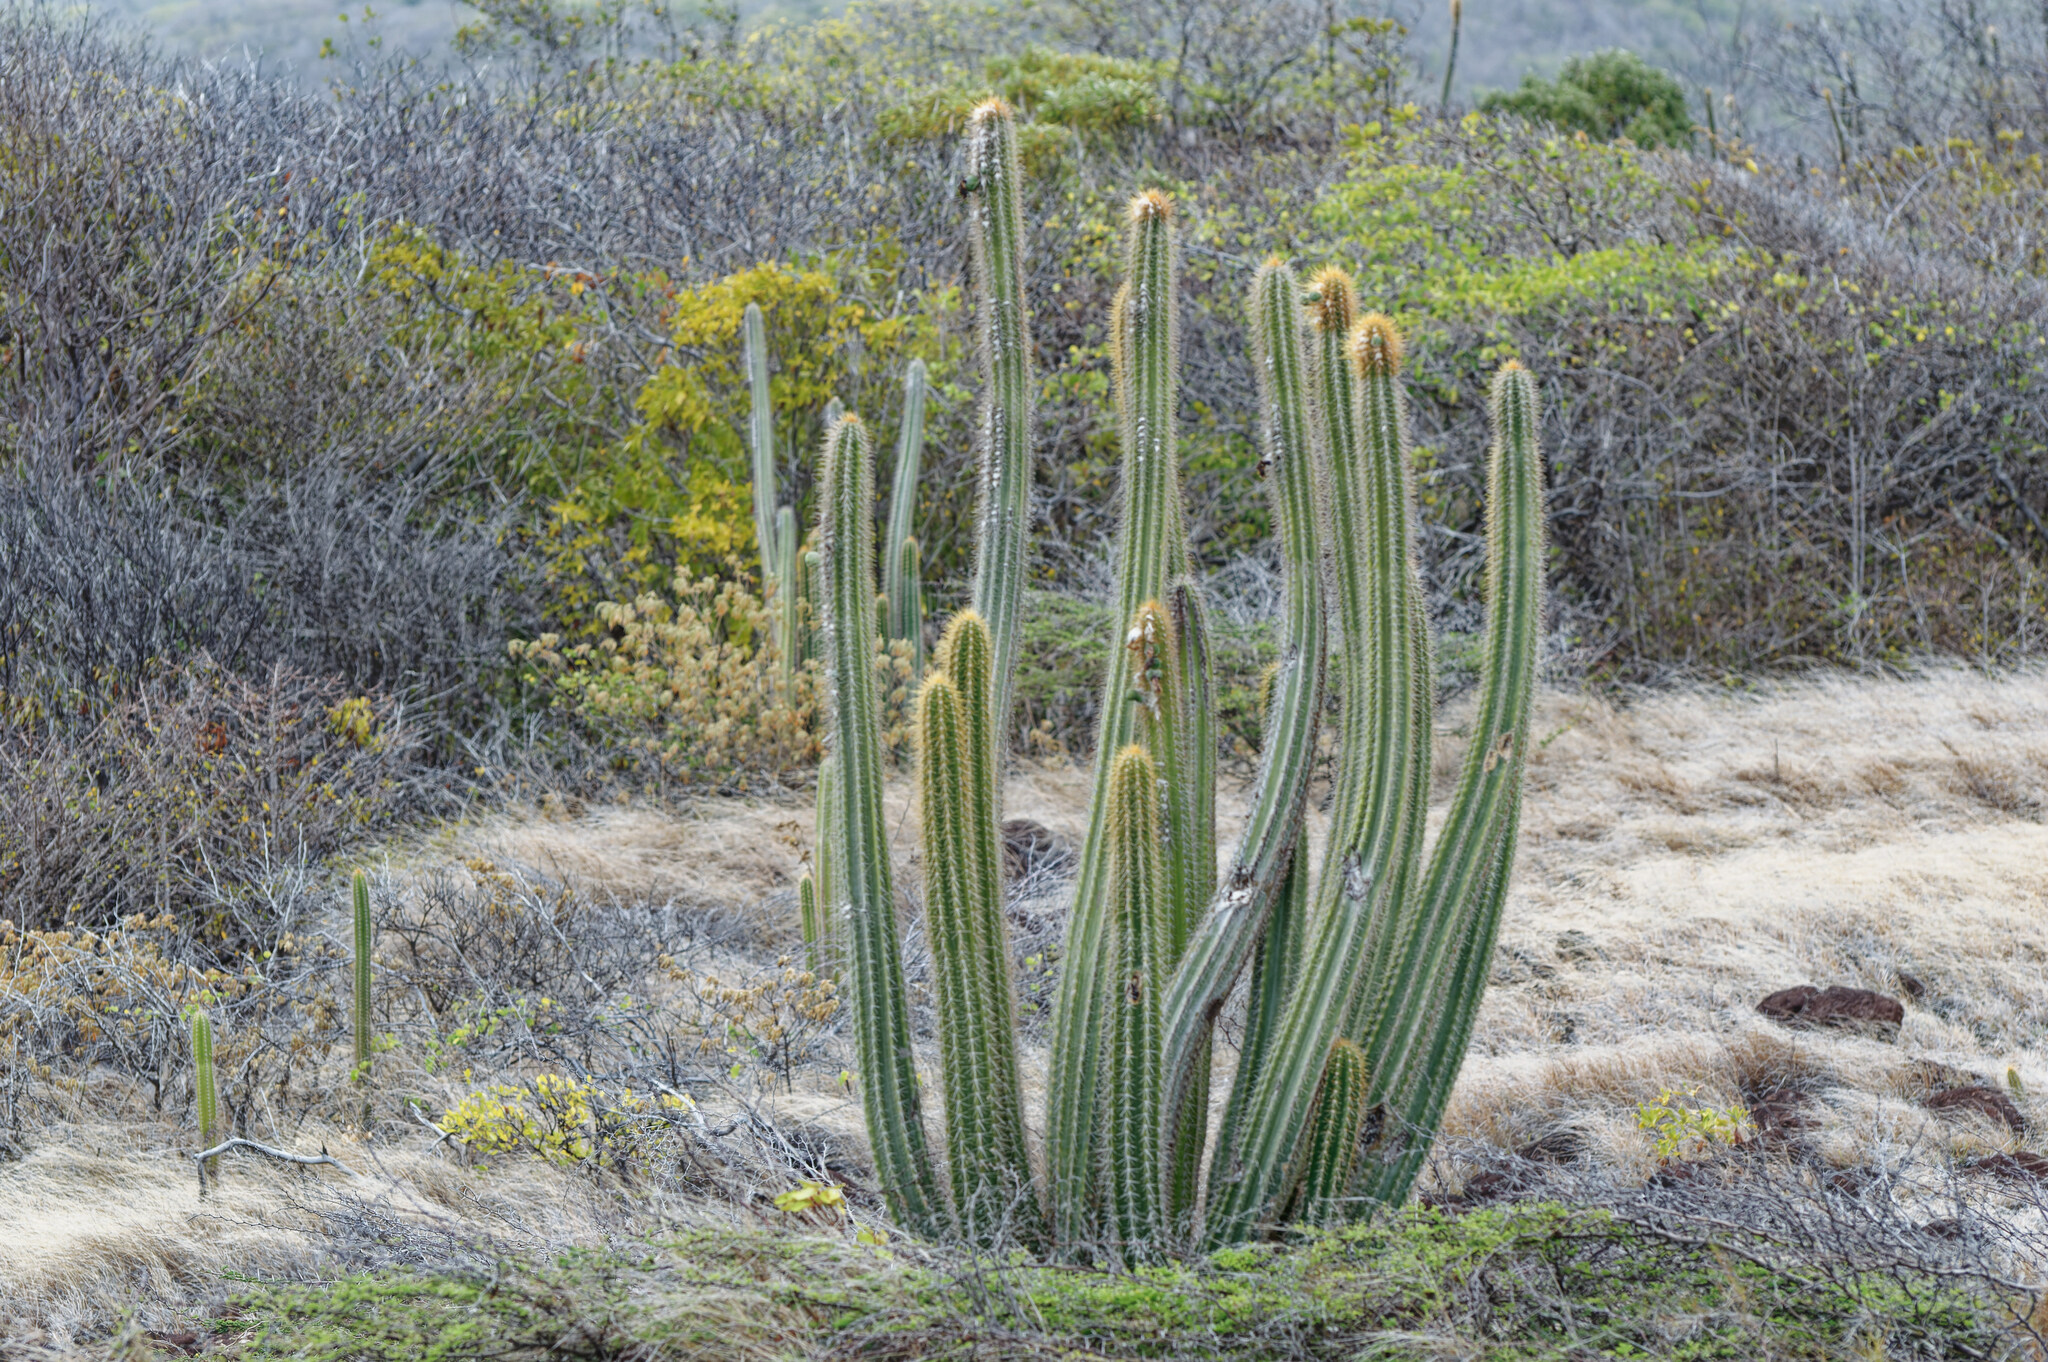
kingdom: Plantae
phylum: Tracheophyta
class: Magnoliopsida
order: Caryophyllales
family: Cactaceae
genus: Pilosocereus
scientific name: Pilosocereus curtisii
